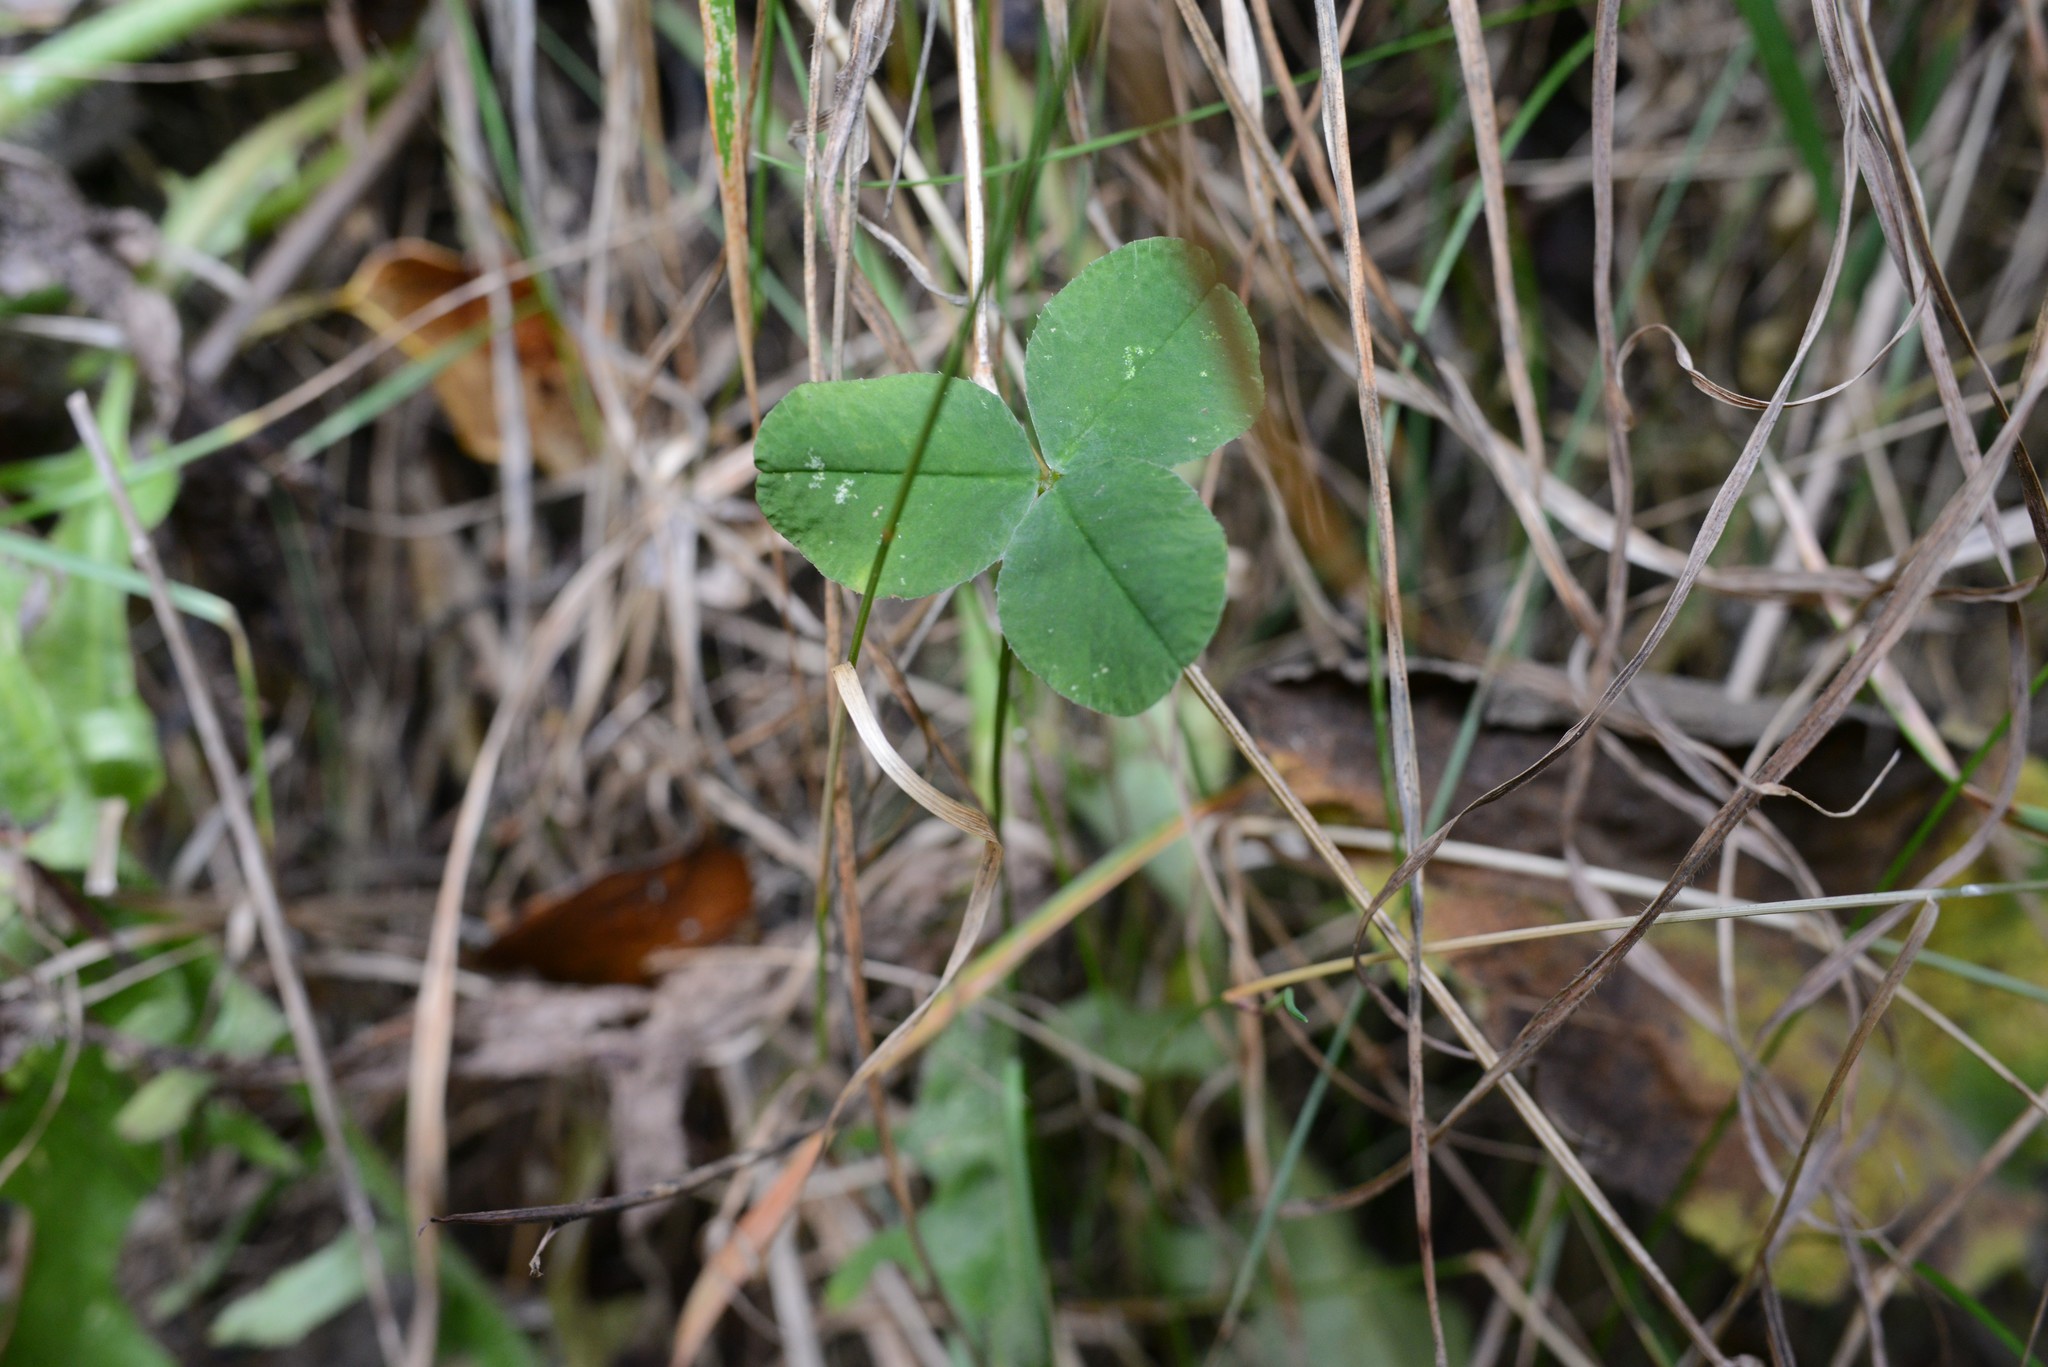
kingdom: Plantae
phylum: Tracheophyta
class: Magnoliopsida
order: Fabales
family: Fabaceae
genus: Trifolium
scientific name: Trifolium repens
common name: White clover
